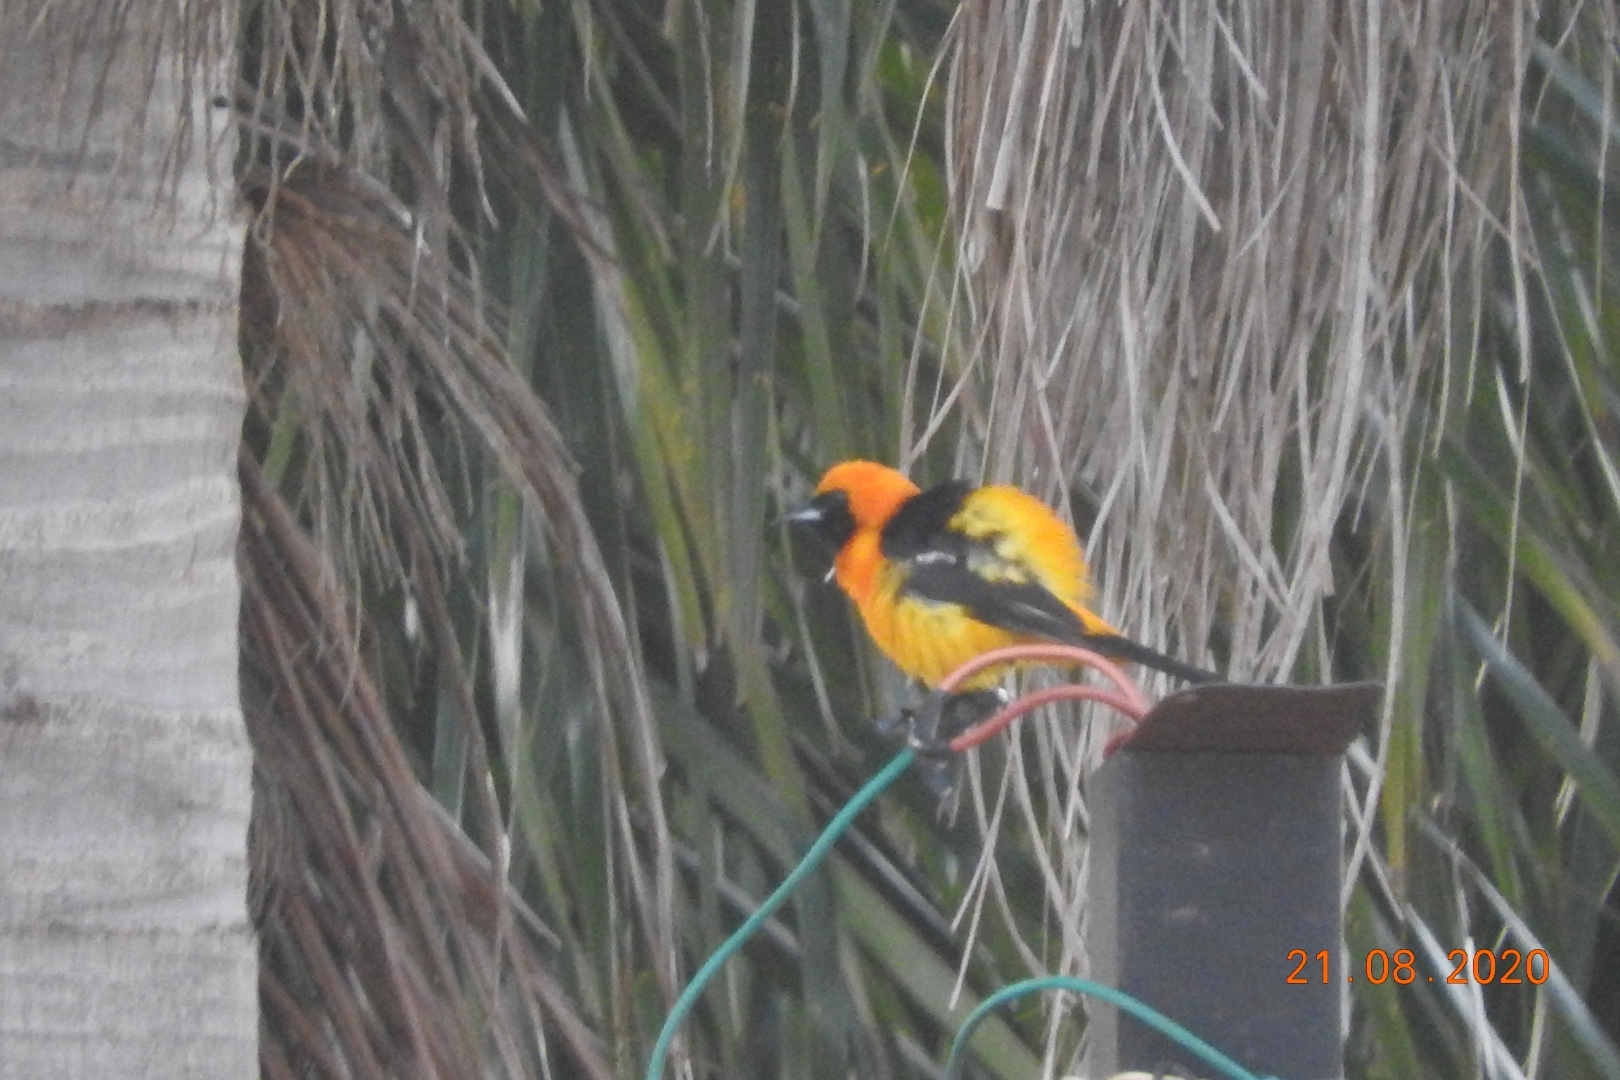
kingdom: Animalia
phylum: Chordata
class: Aves
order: Passeriformes
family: Icteridae
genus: Icterus
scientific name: Icterus cucullatus
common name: Hooded oriole
